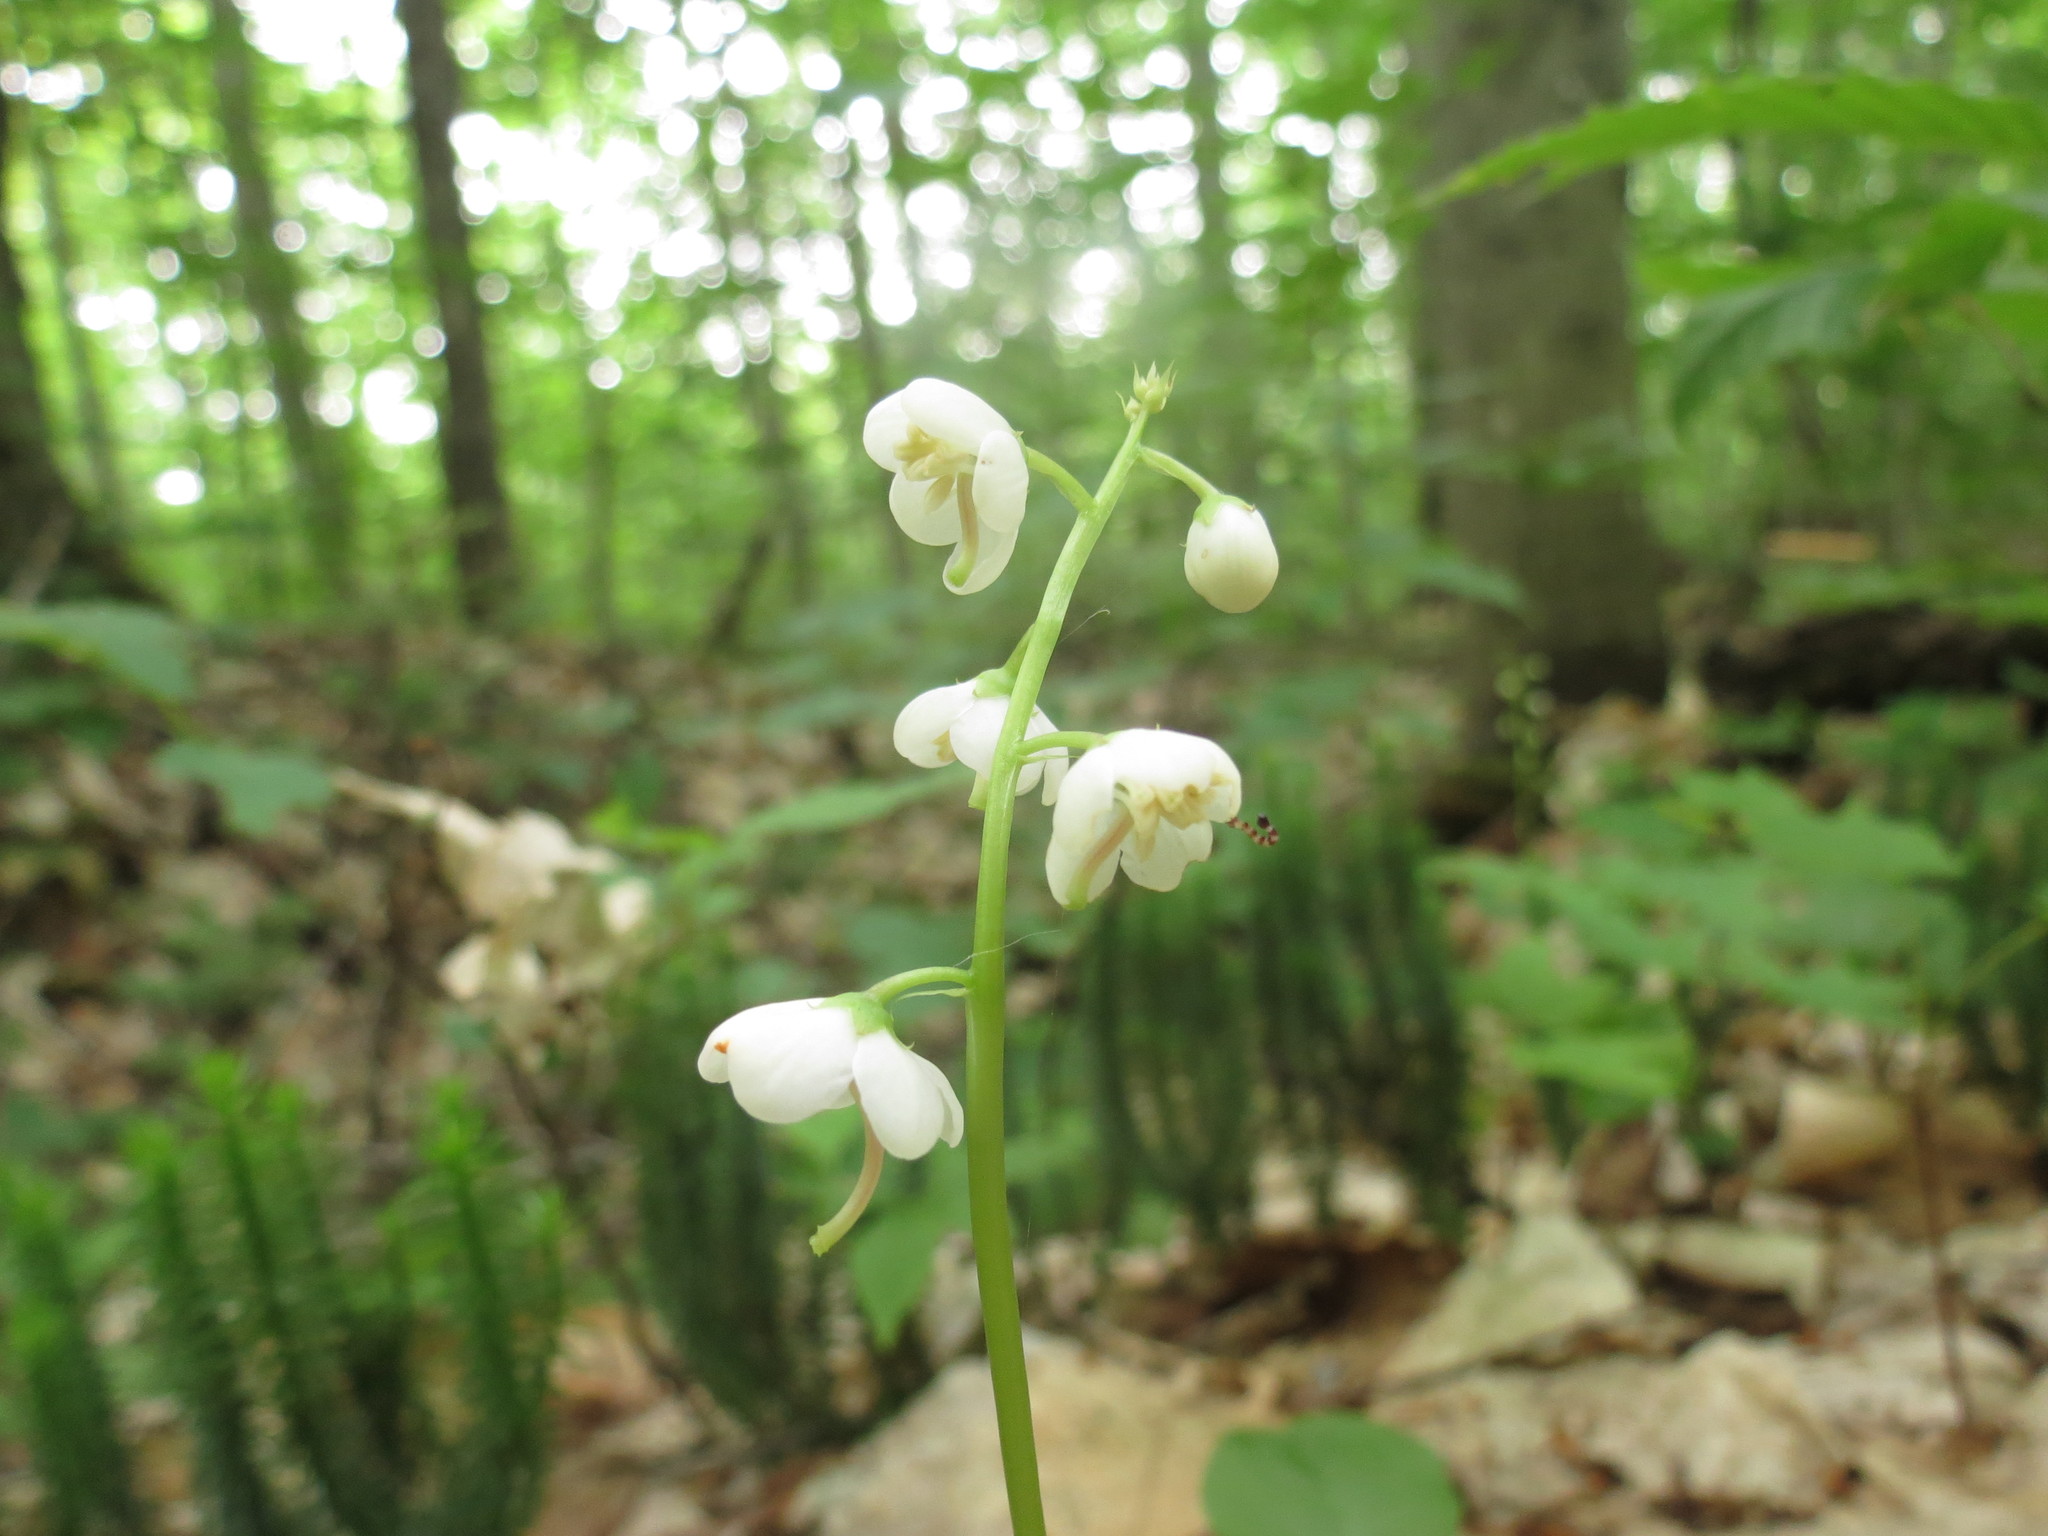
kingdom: Plantae
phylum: Tracheophyta
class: Magnoliopsida
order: Ericales
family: Ericaceae
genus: Pyrola
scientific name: Pyrola elliptica
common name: Shinleaf
